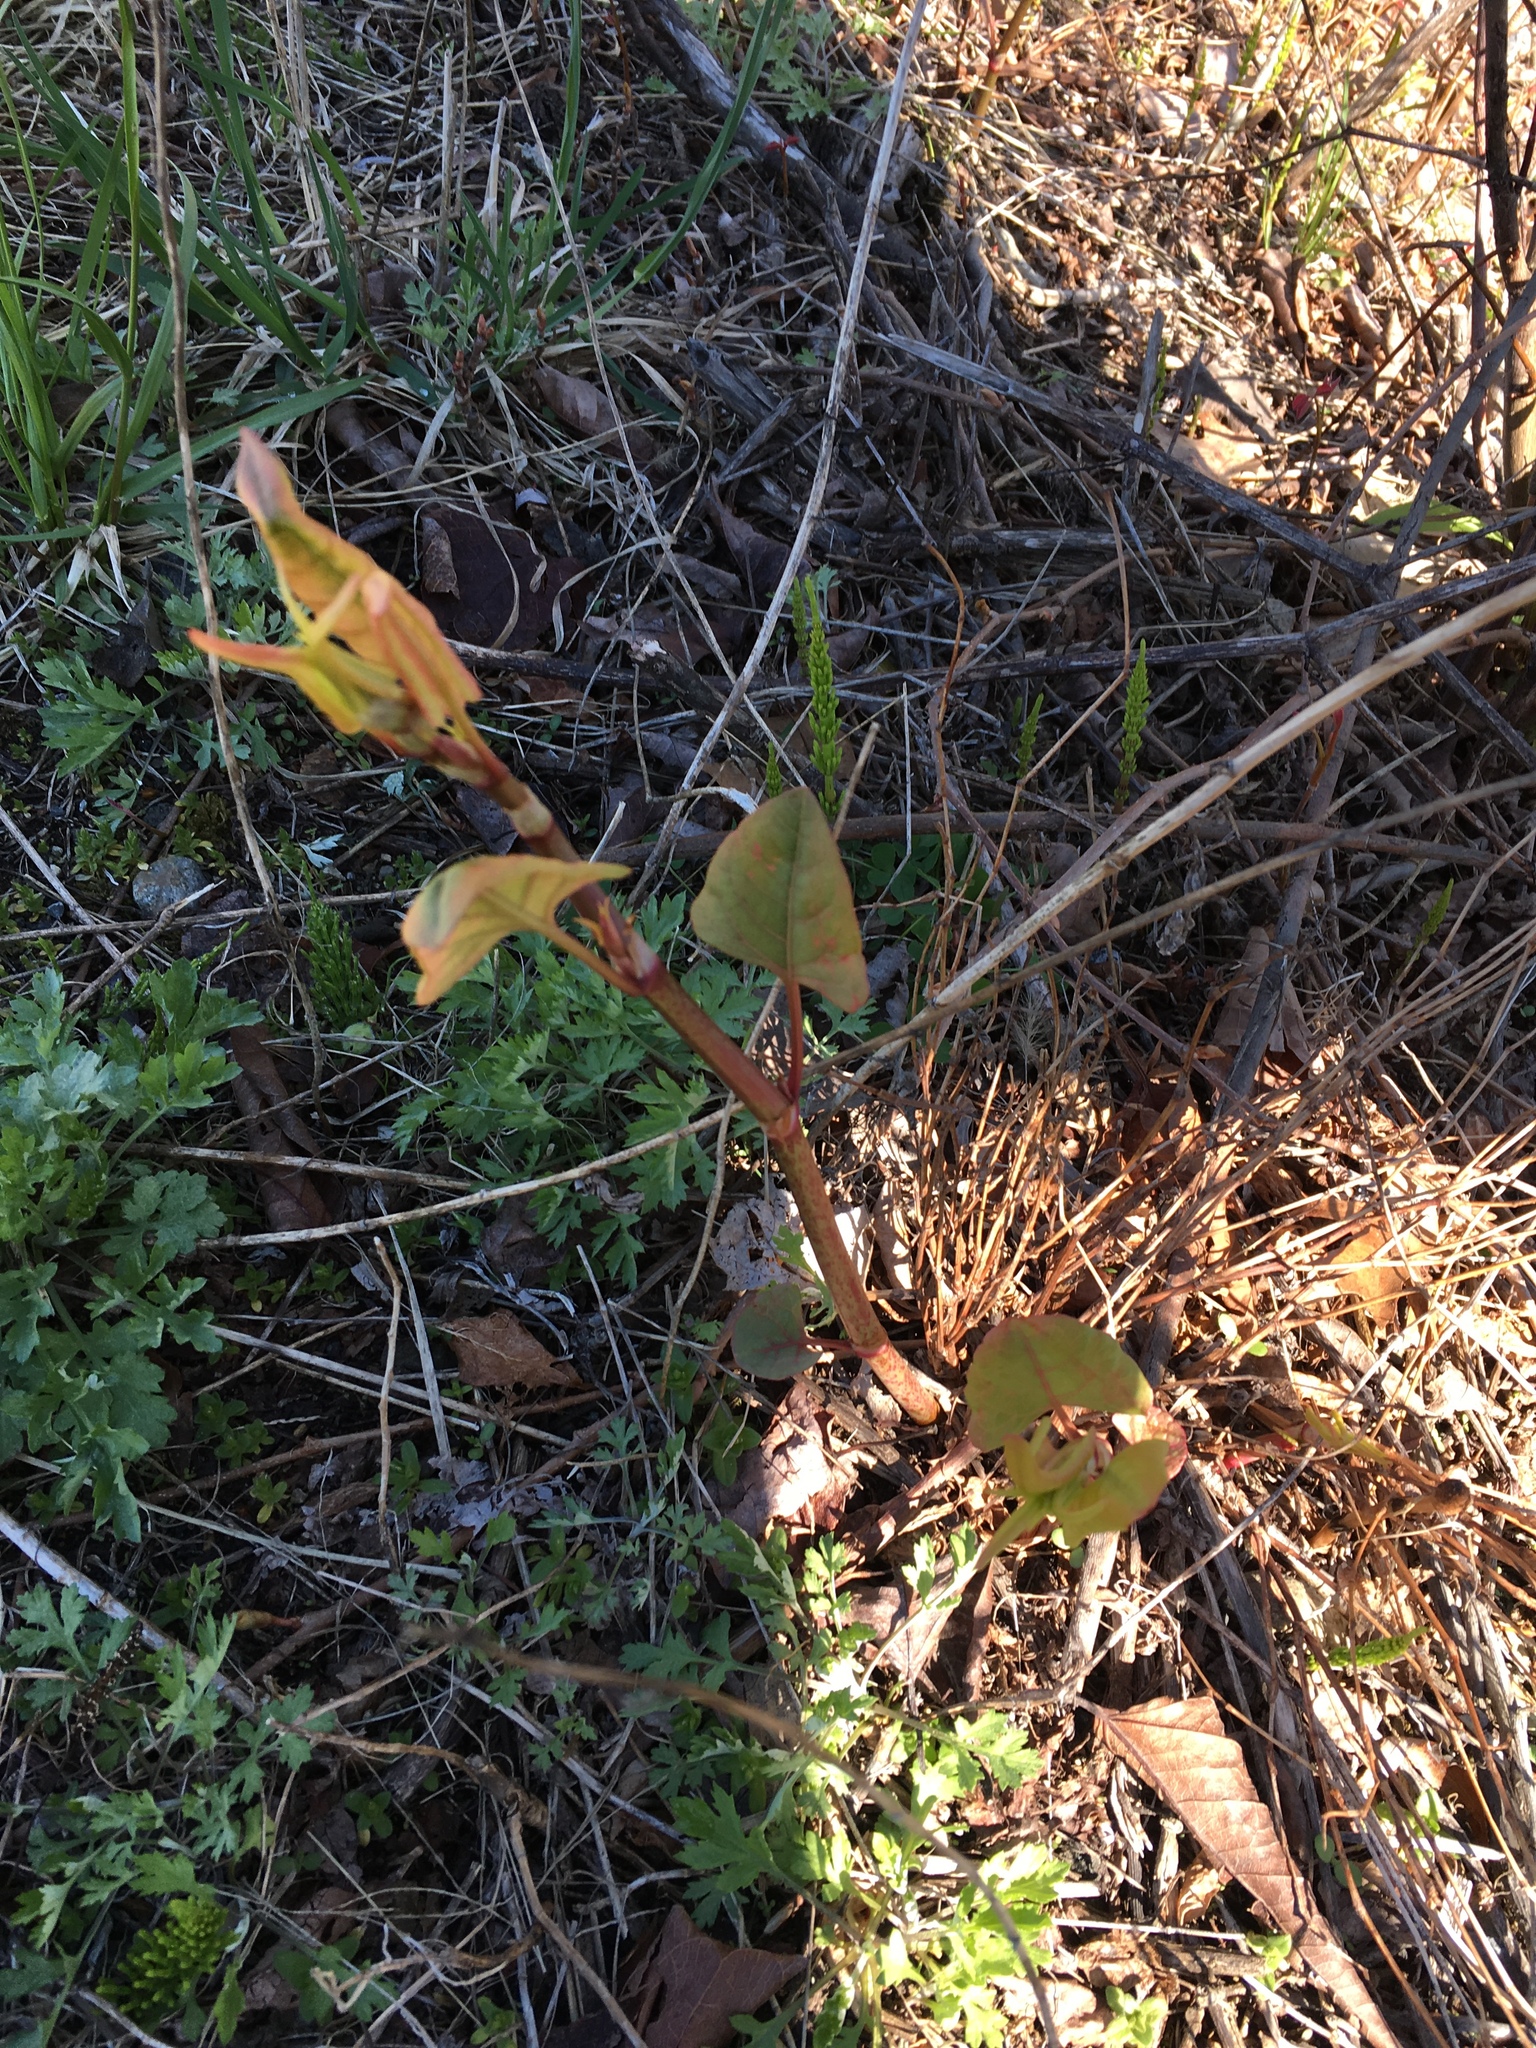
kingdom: Plantae
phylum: Tracheophyta
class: Magnoliopsida
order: Caryophyllales
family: Polygonaceae
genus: Reynoutria
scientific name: Reynoutria japonica
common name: Japanese knotweed
